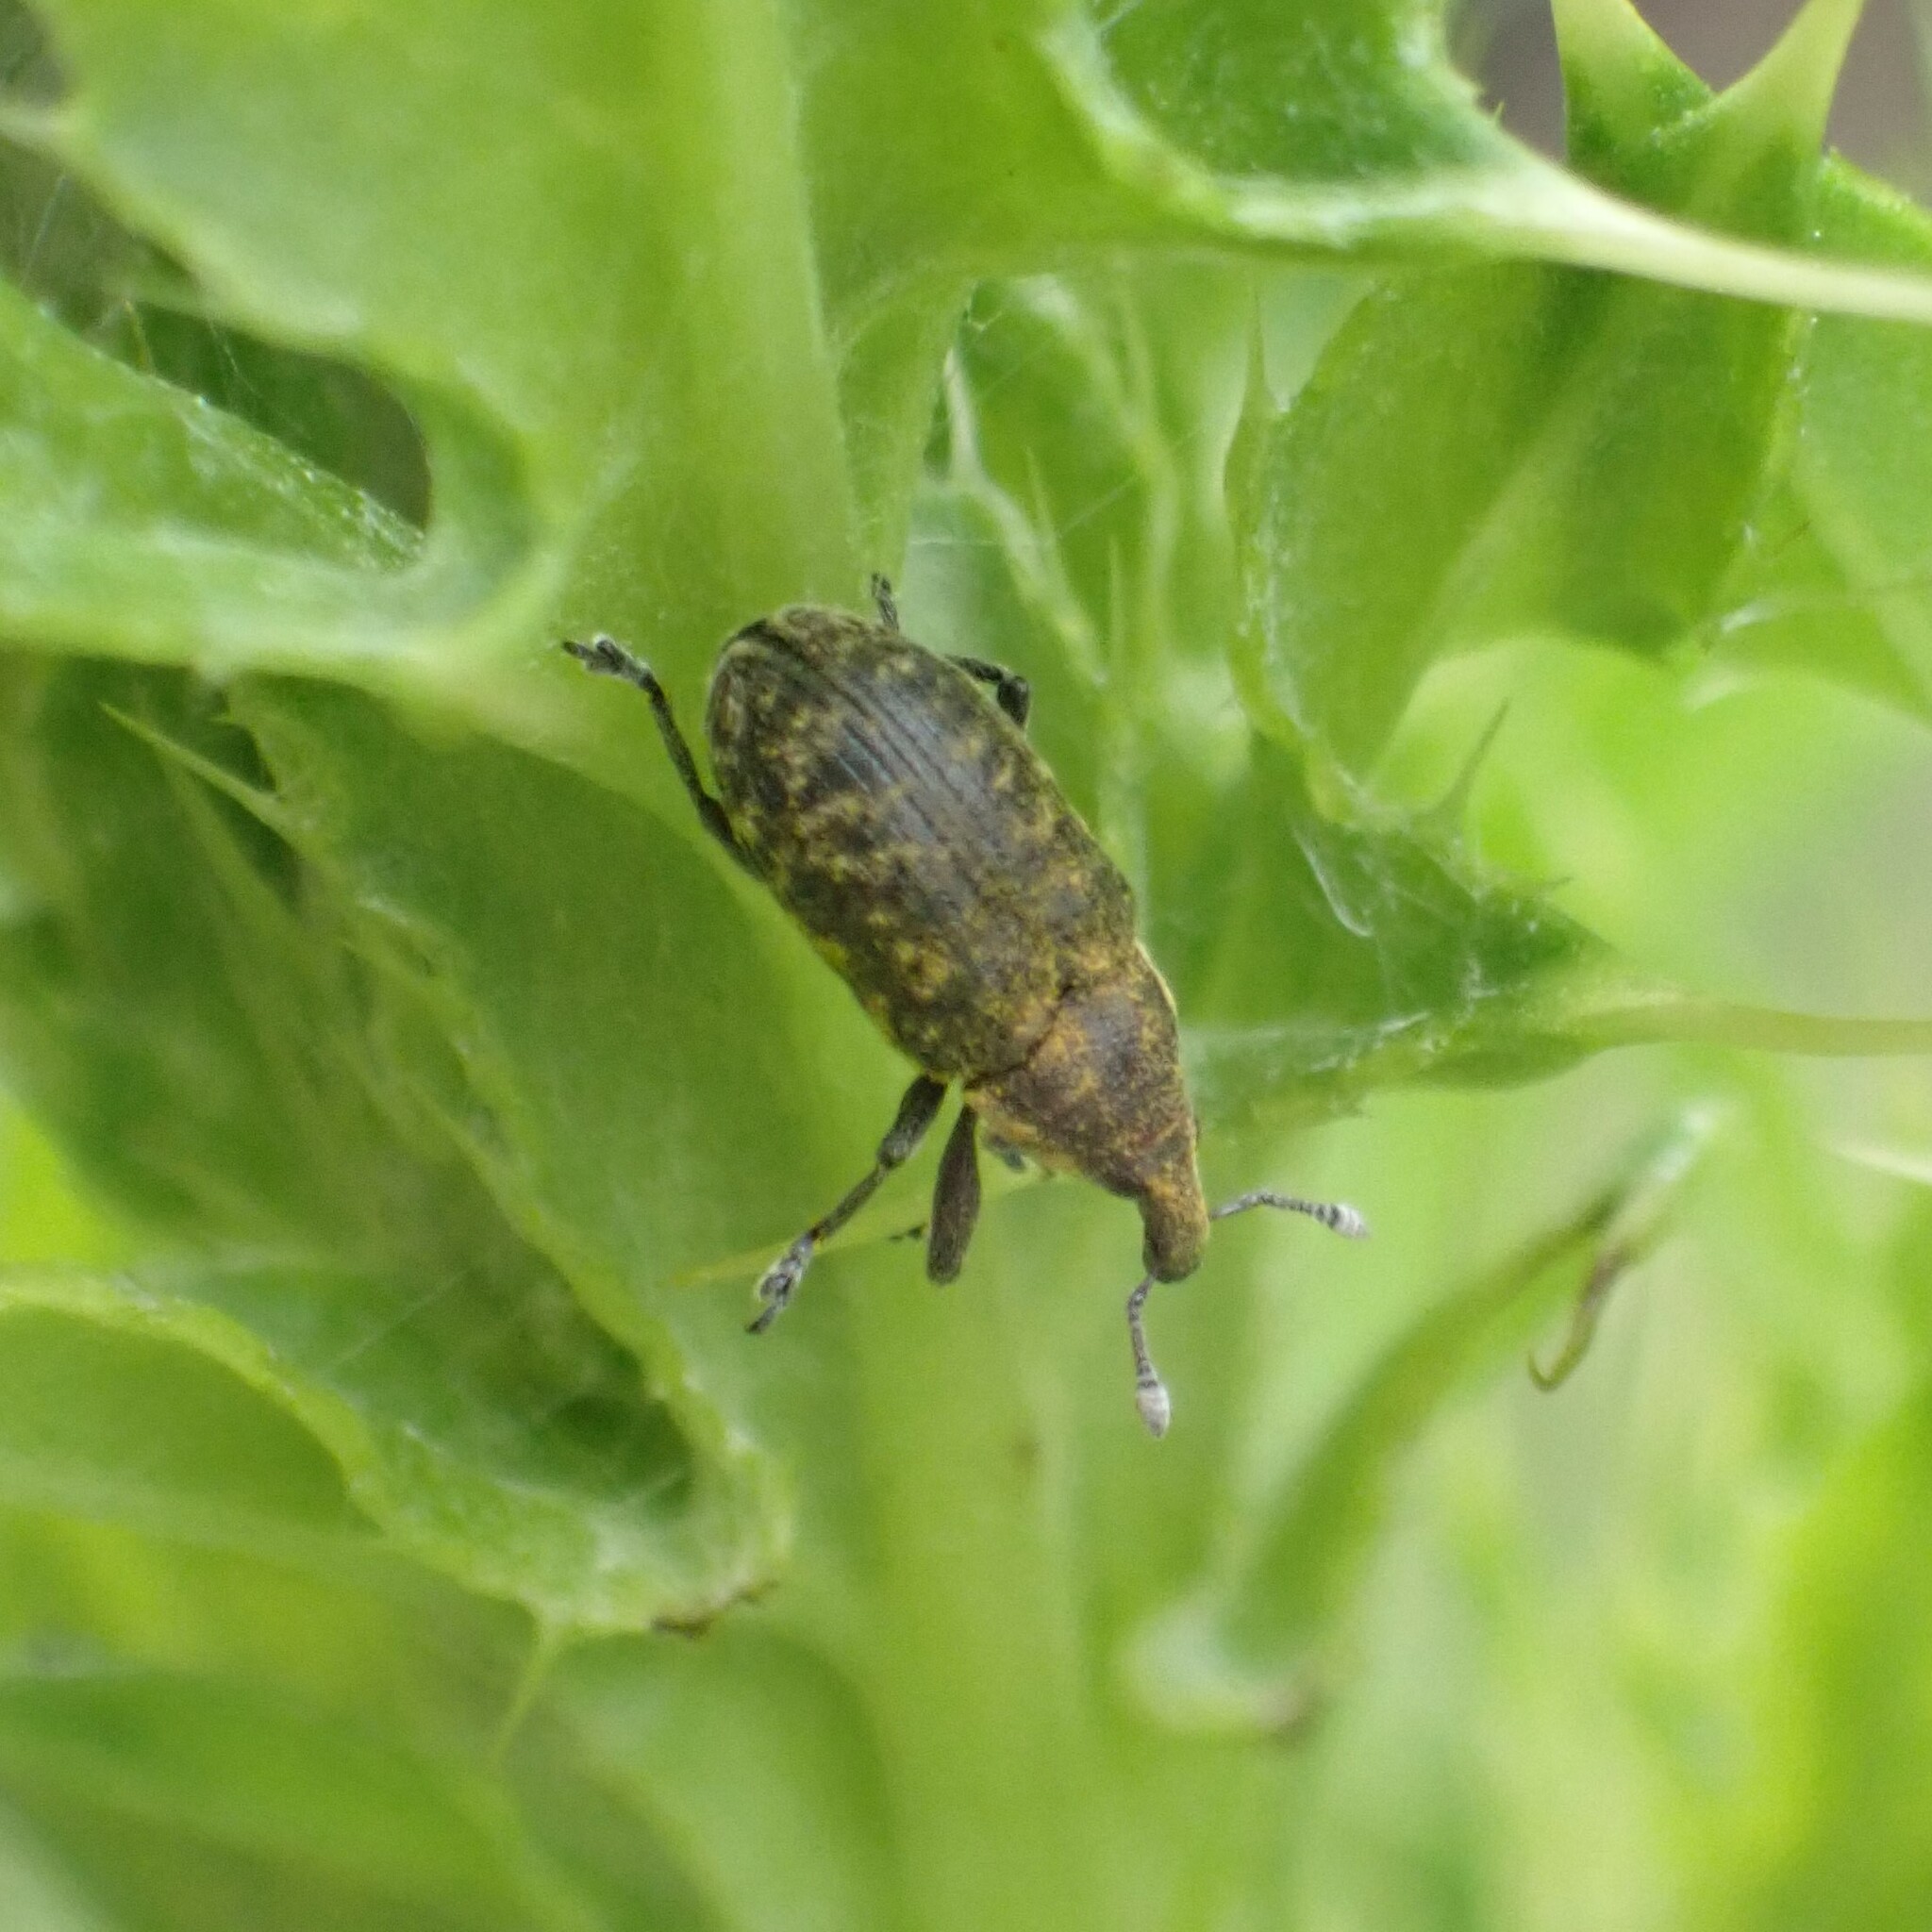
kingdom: Animalia
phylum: Arthropoda
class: Insecta
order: Coleoptera
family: Curculionidae
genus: Larinus
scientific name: Larinus carlinae
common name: Weevil
